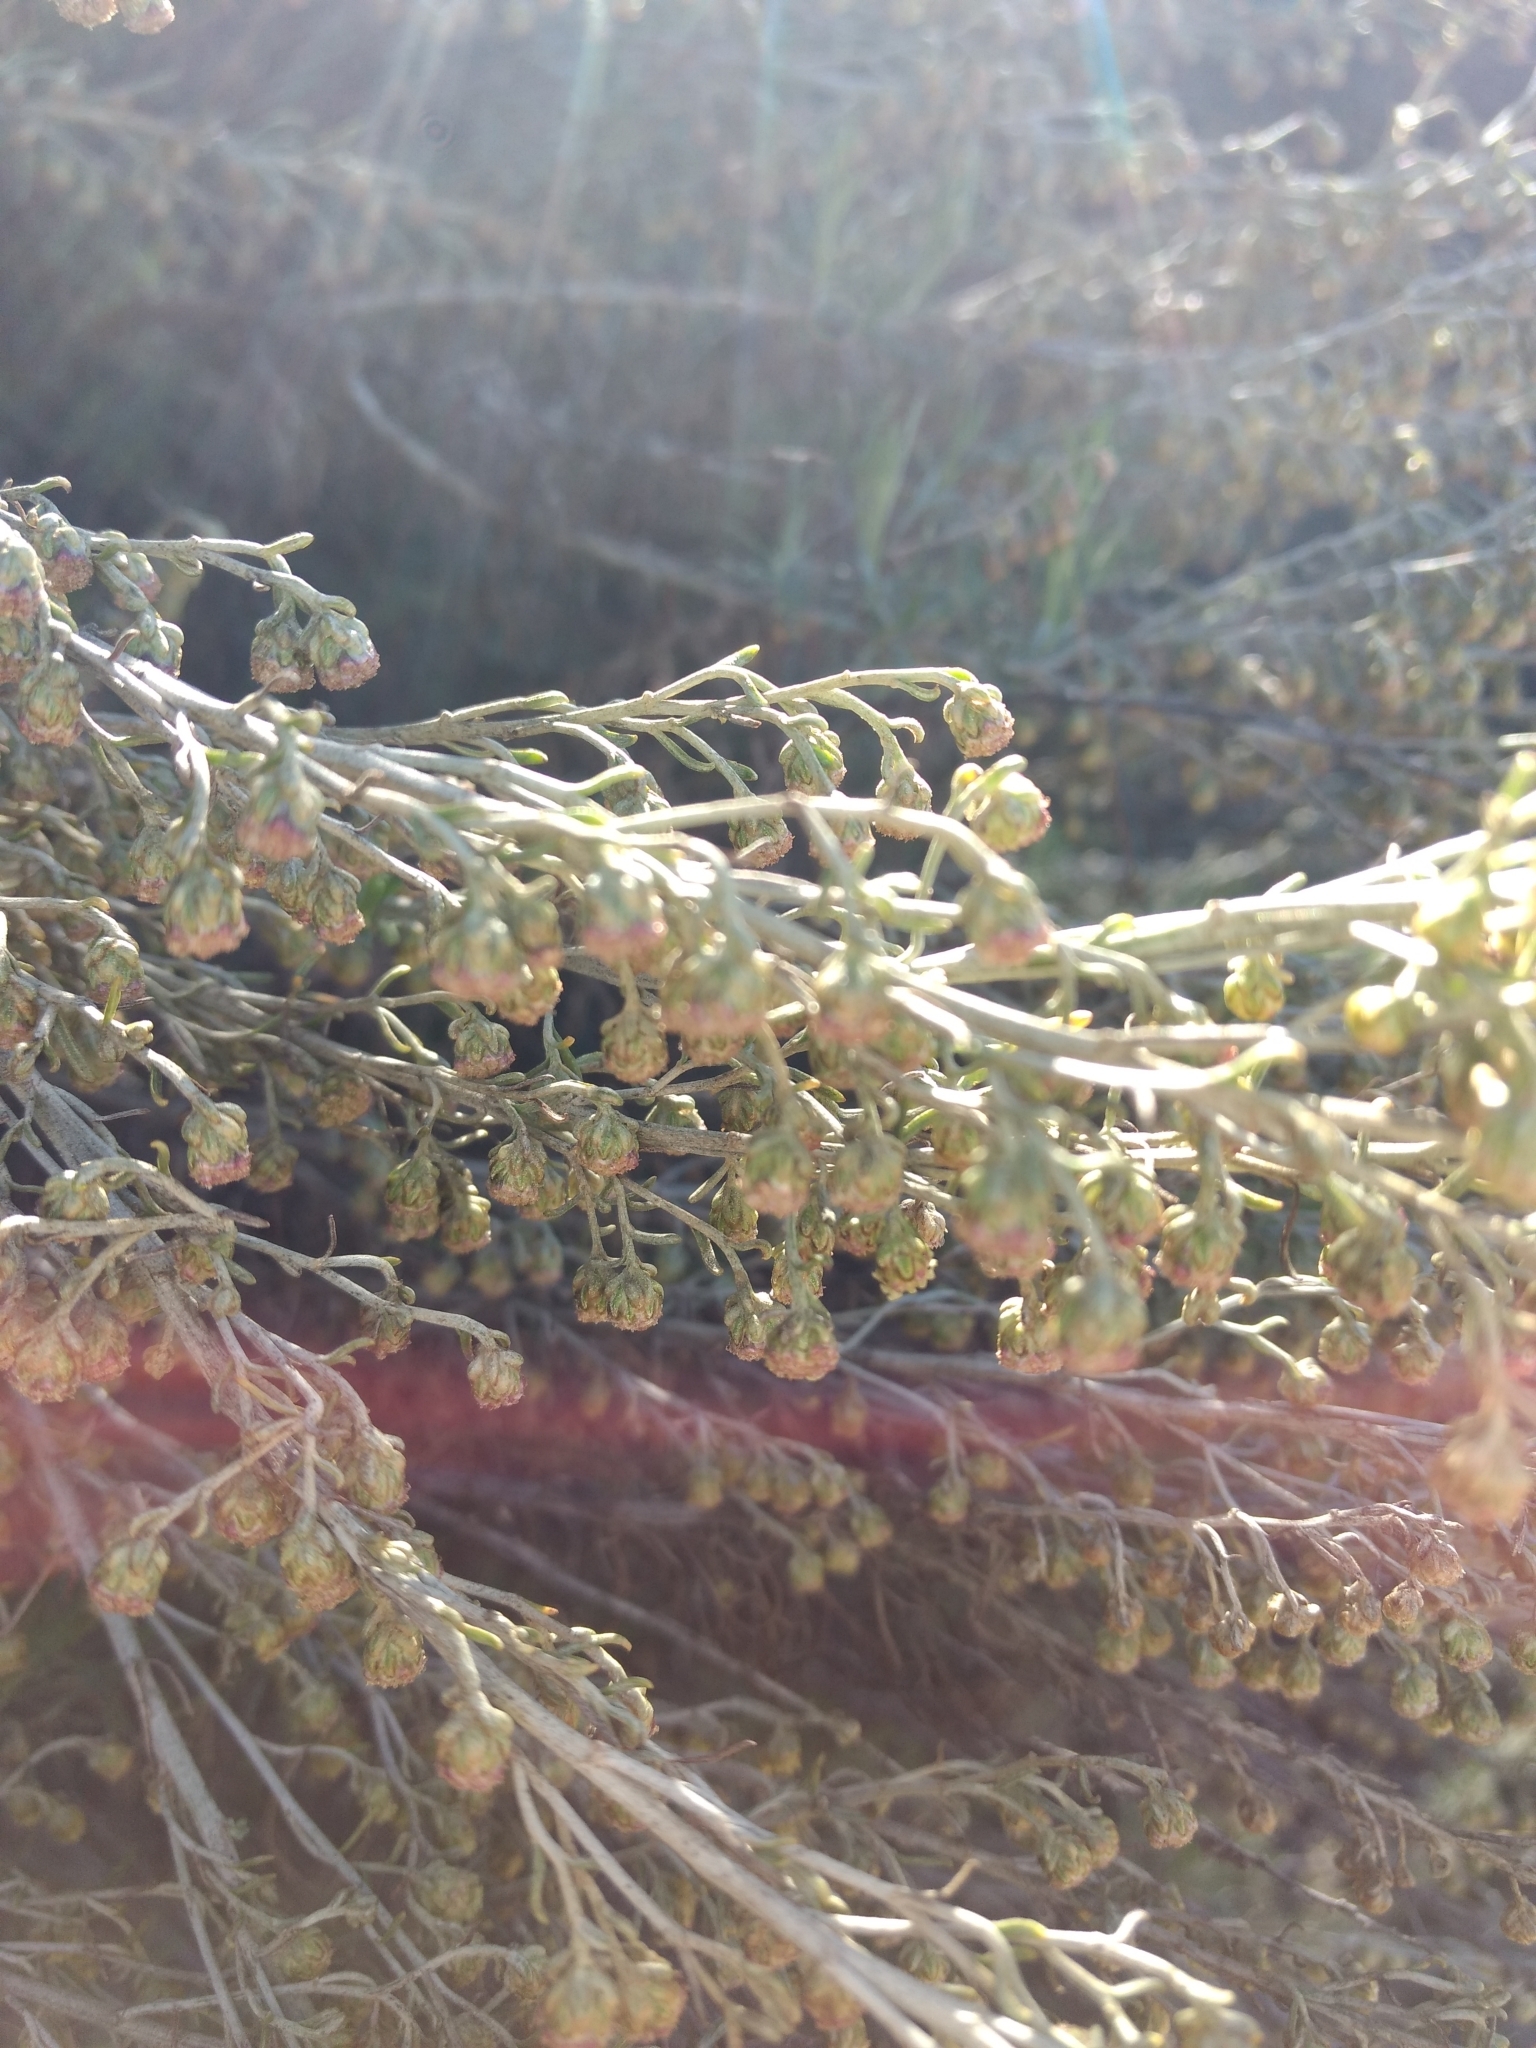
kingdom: Plantae
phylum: Tracheophyta
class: Magnoliopsida
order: Asterales
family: Asteraceae
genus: Artemisia
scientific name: Artemisia californica
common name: California sagebrush
